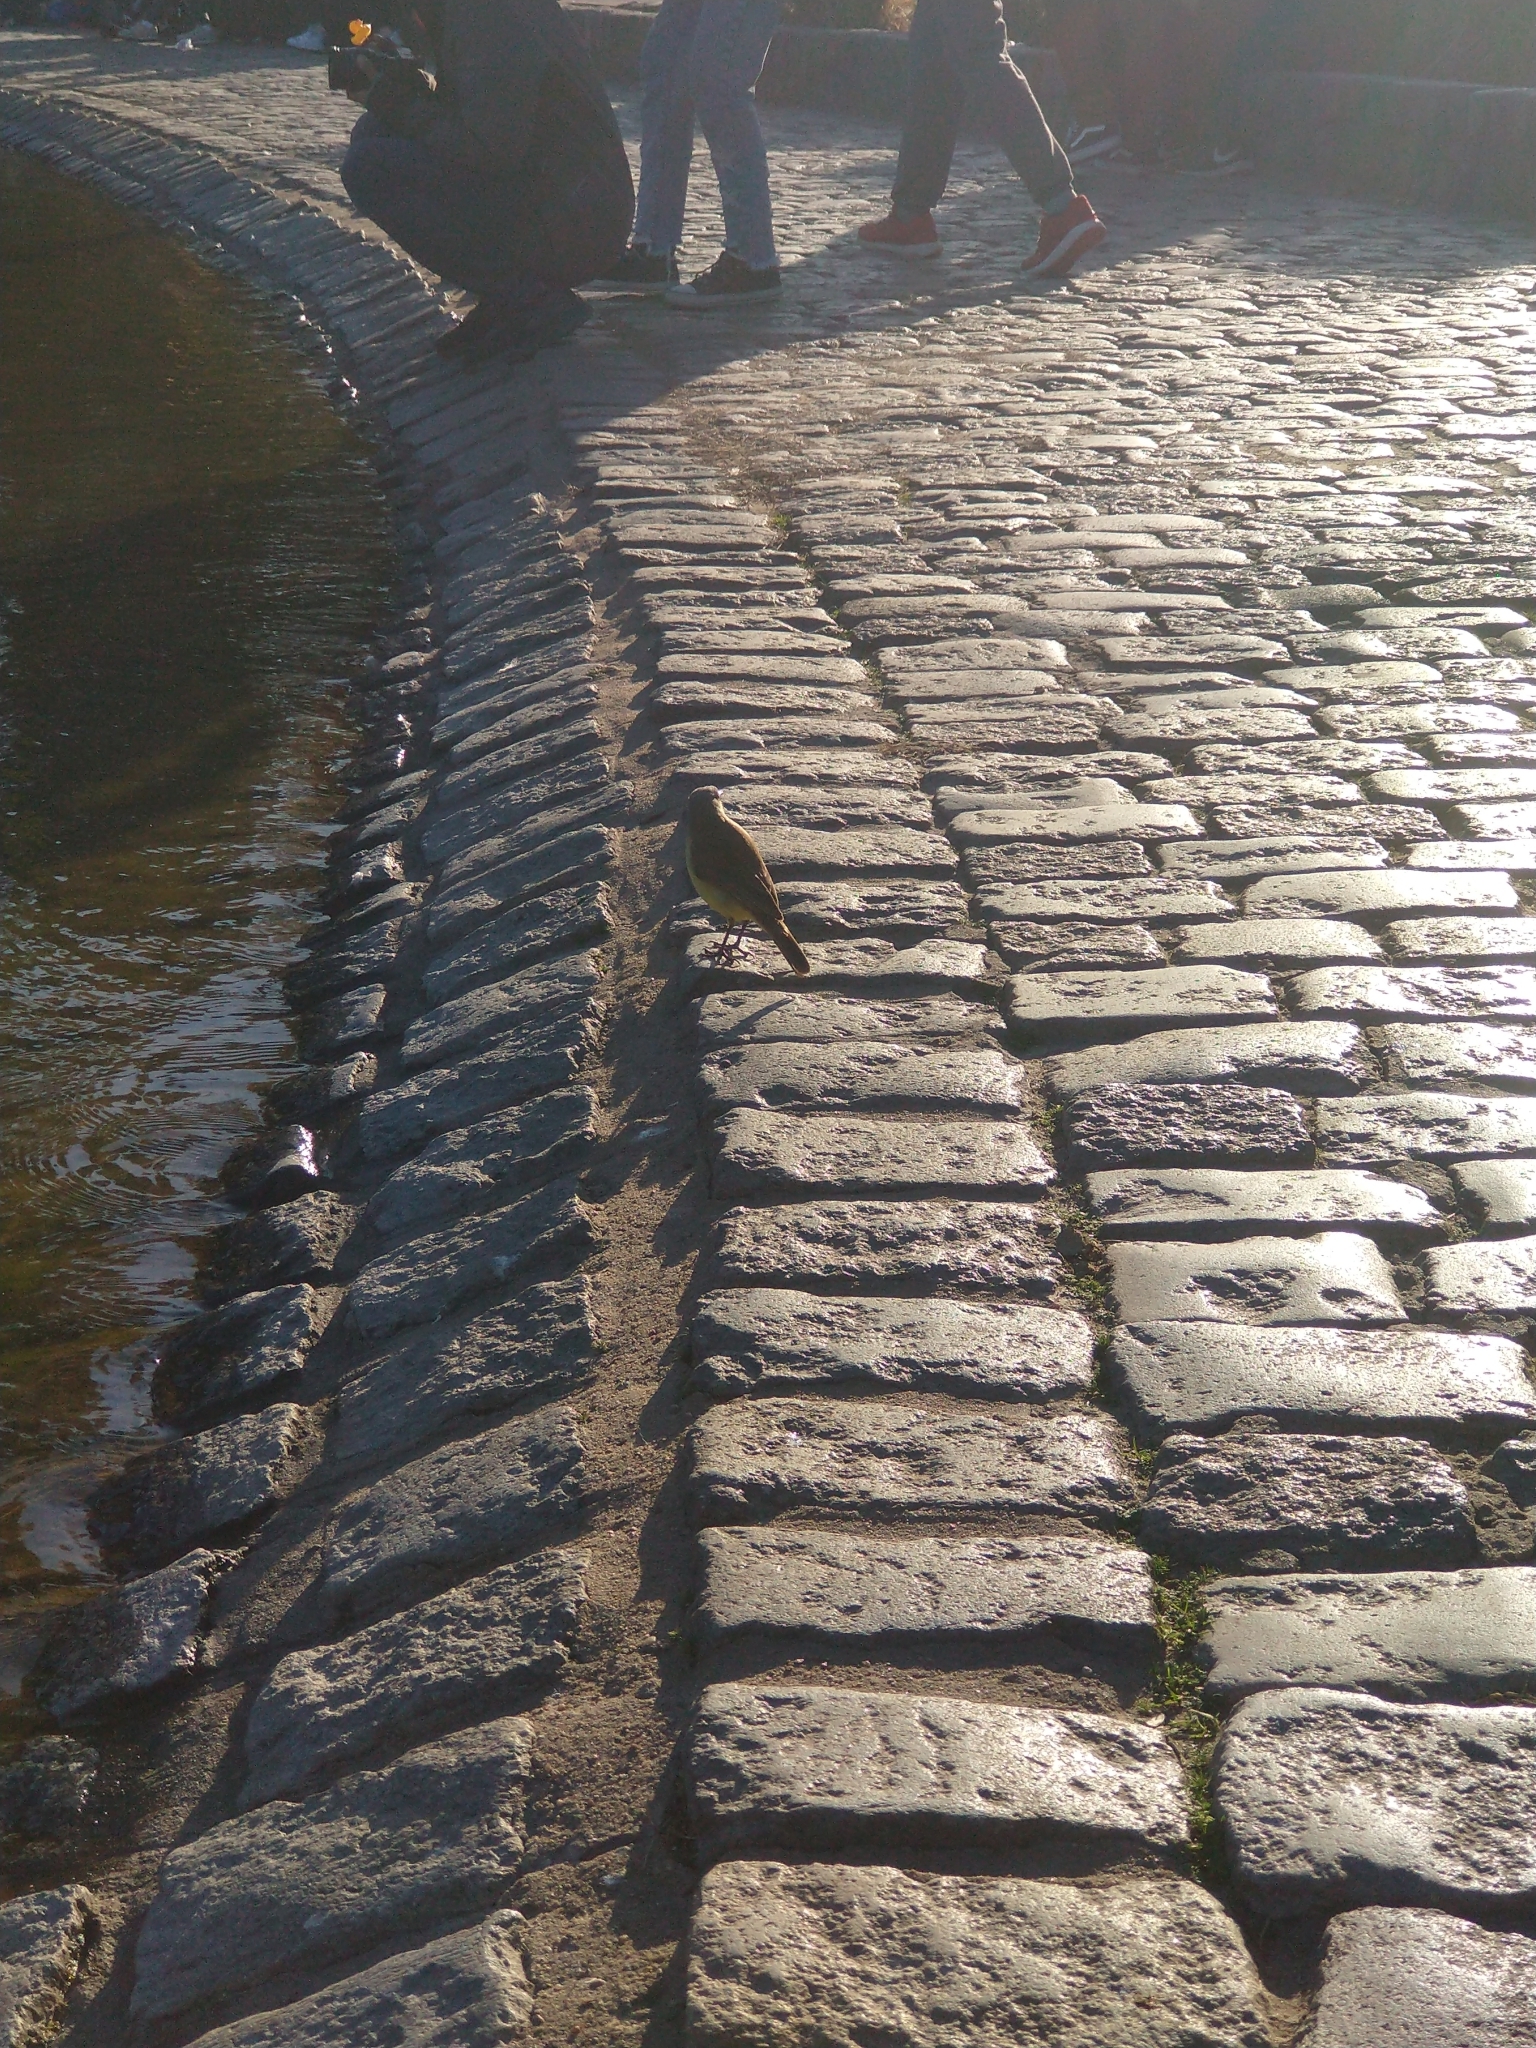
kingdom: Animalia
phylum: Chordata
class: Aves
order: Passeriformes
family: Tyrannidae
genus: Machetornis
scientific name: Machetornis rixosa
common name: Cattle tyrant
